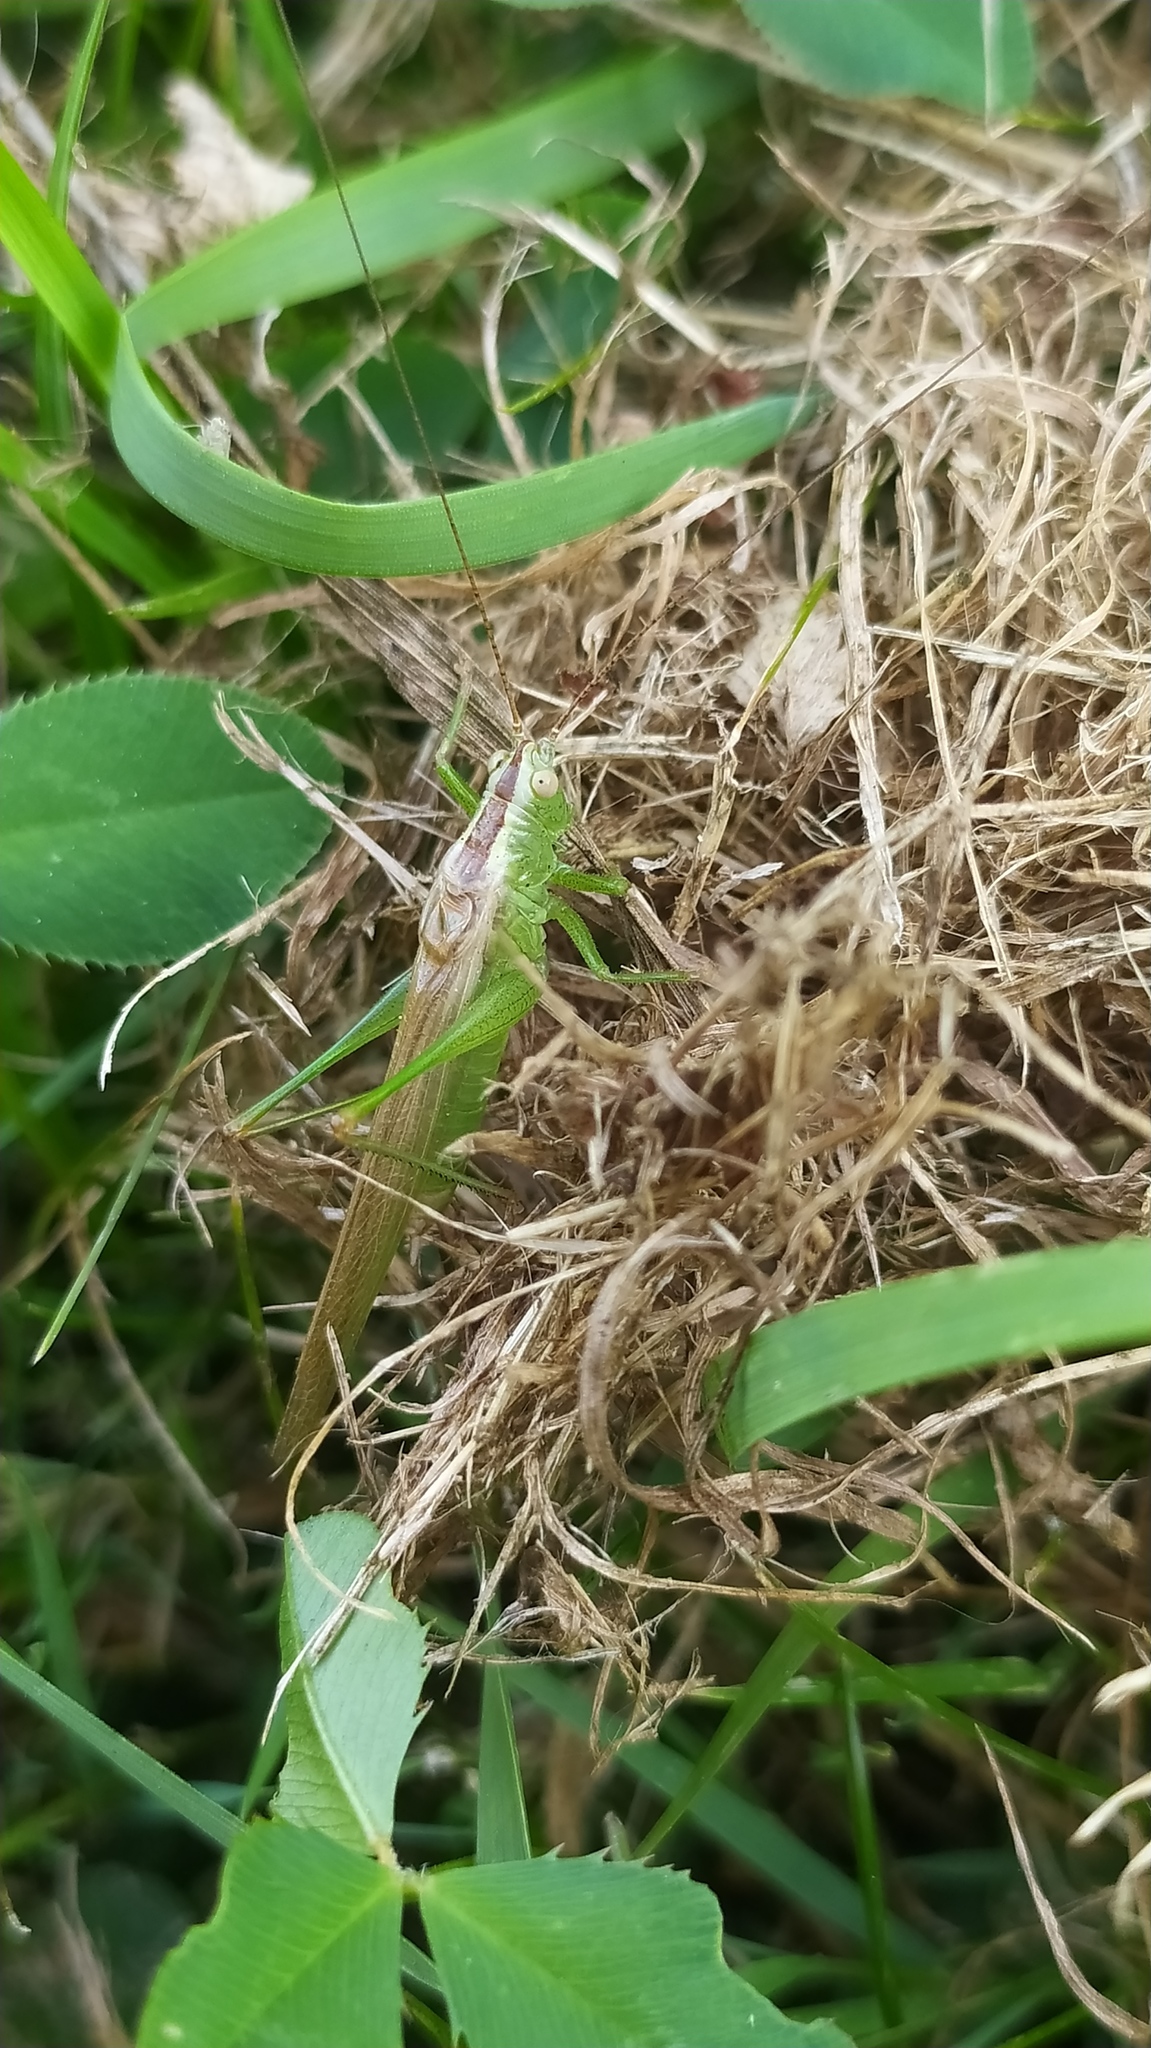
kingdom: Animalia
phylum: Arthropoda
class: Insecta
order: Orthoptera
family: Tettigoniidae
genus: Conocephalus
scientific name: Conocephalus fuscus
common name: Long-winged conehead
